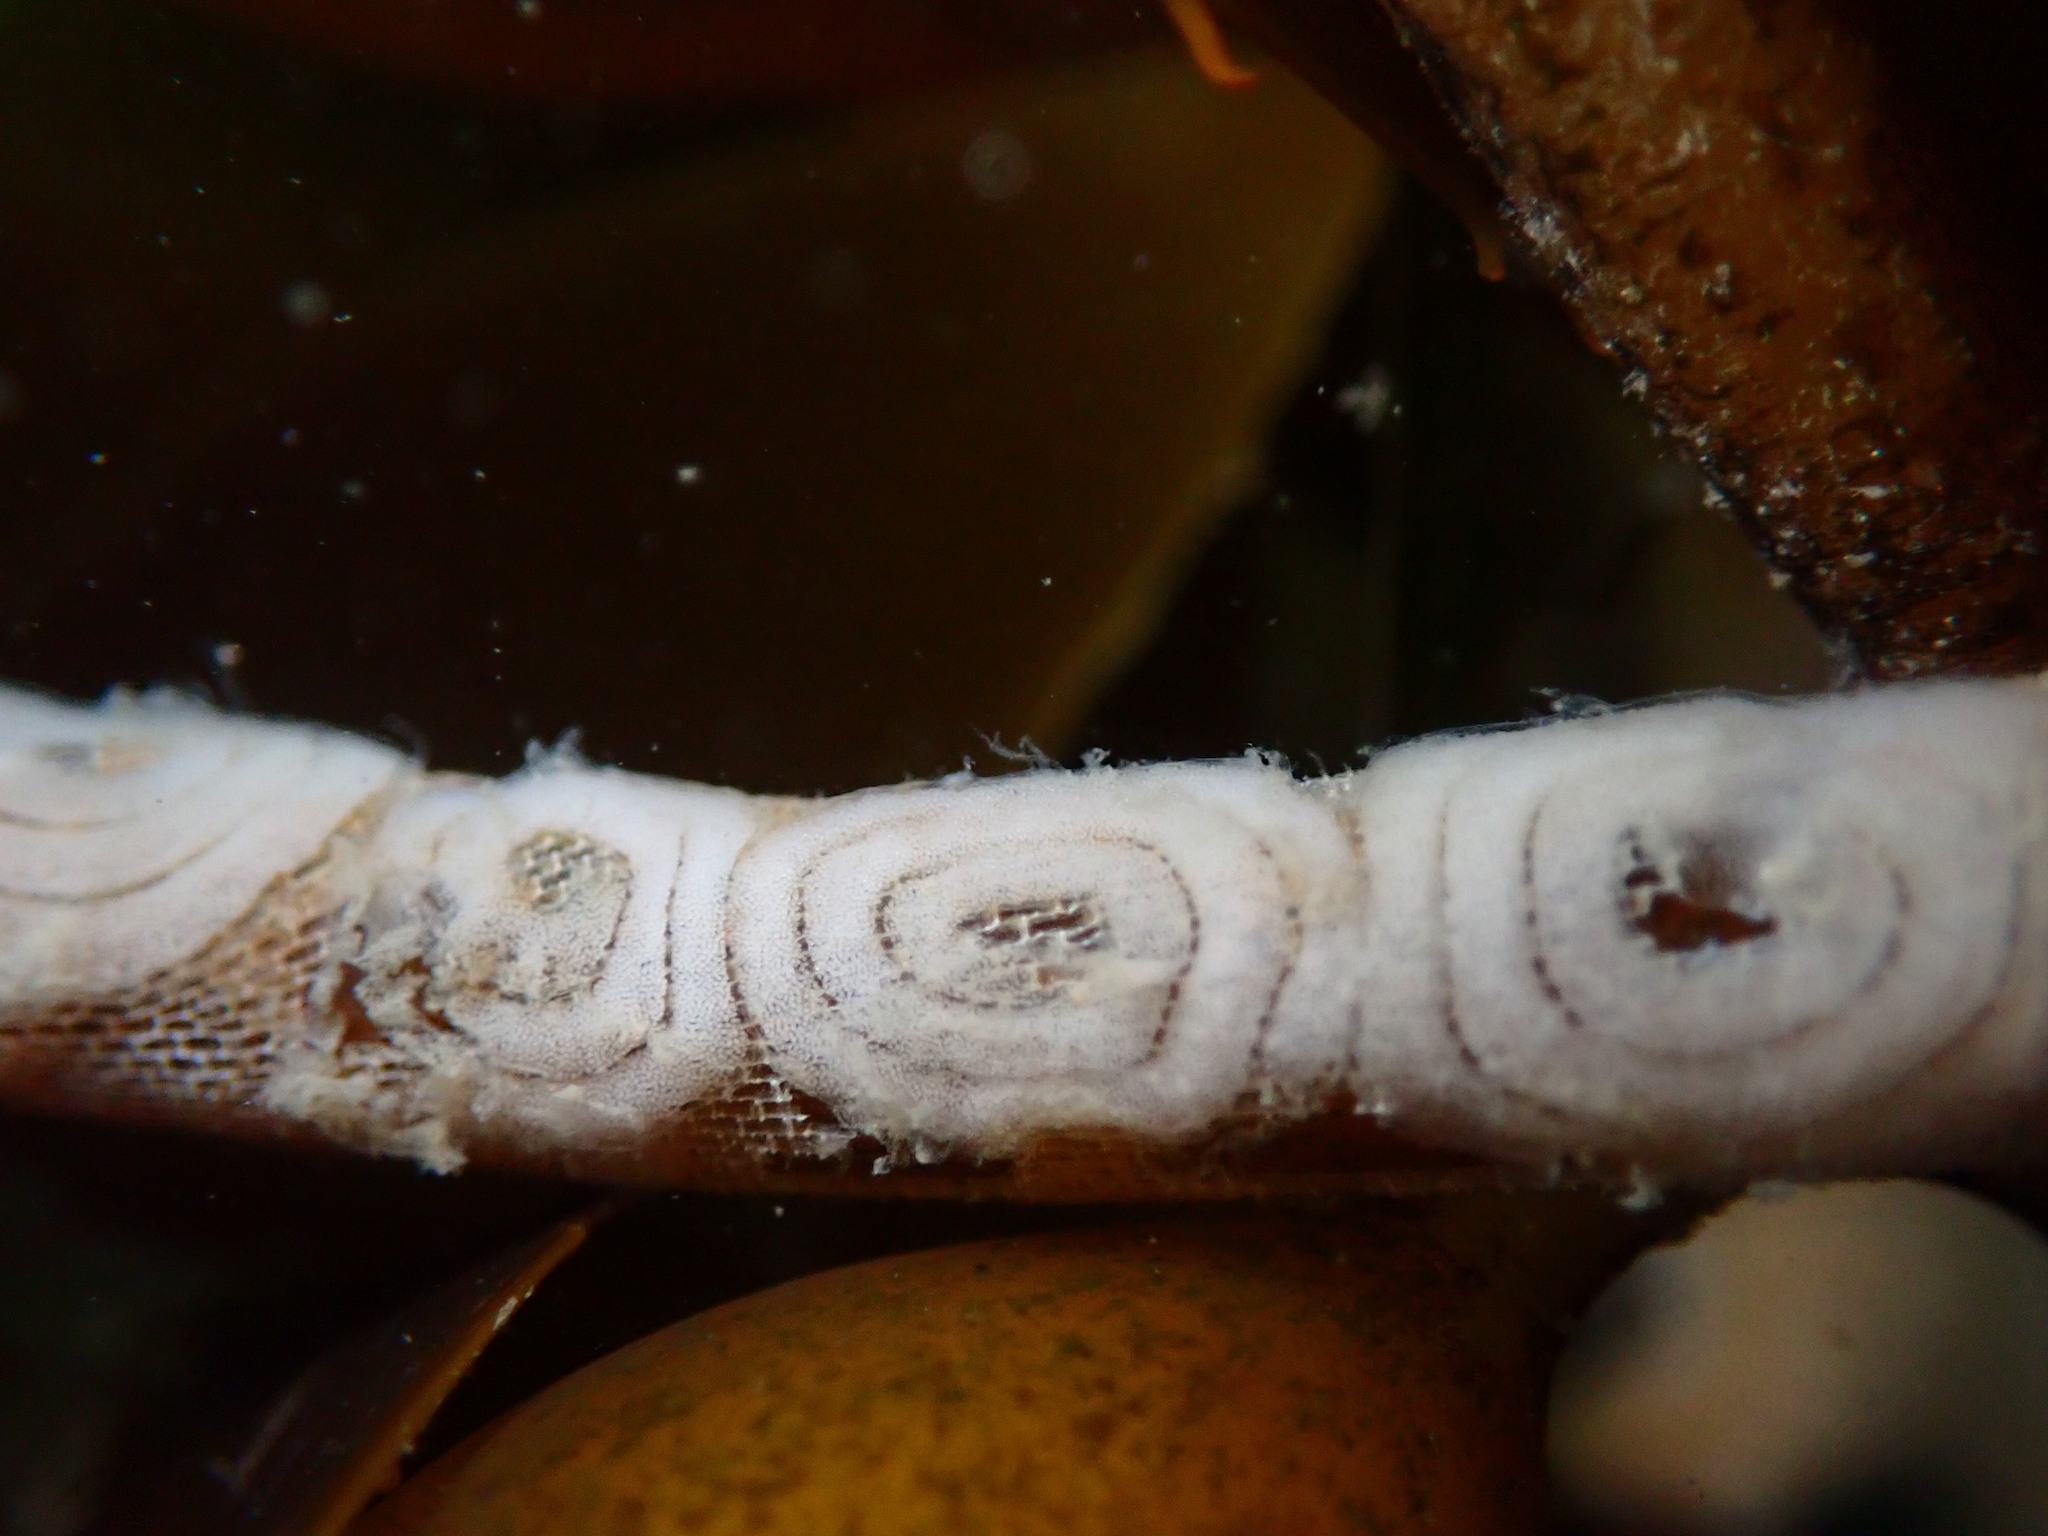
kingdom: Animalia
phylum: Mollusca
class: Gastropoda
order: Nudibranchia
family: Corambidae
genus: Corambe
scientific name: Corambe pacifica
